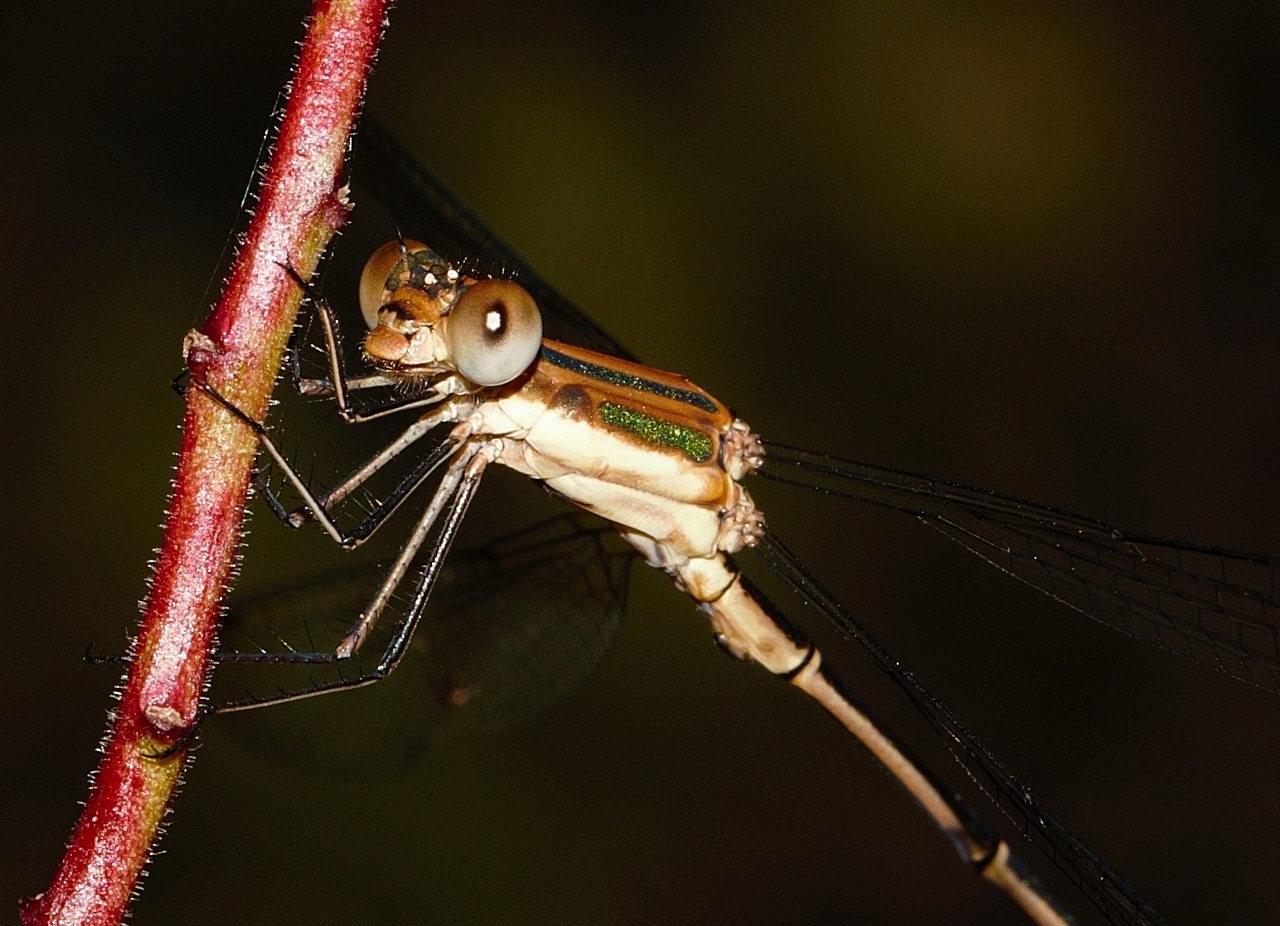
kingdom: Animalia
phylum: Arthropoda
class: Insecta
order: Odonata
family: Lestidae
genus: Lestes
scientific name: Lestes virgatus
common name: Smoky spreadwing
